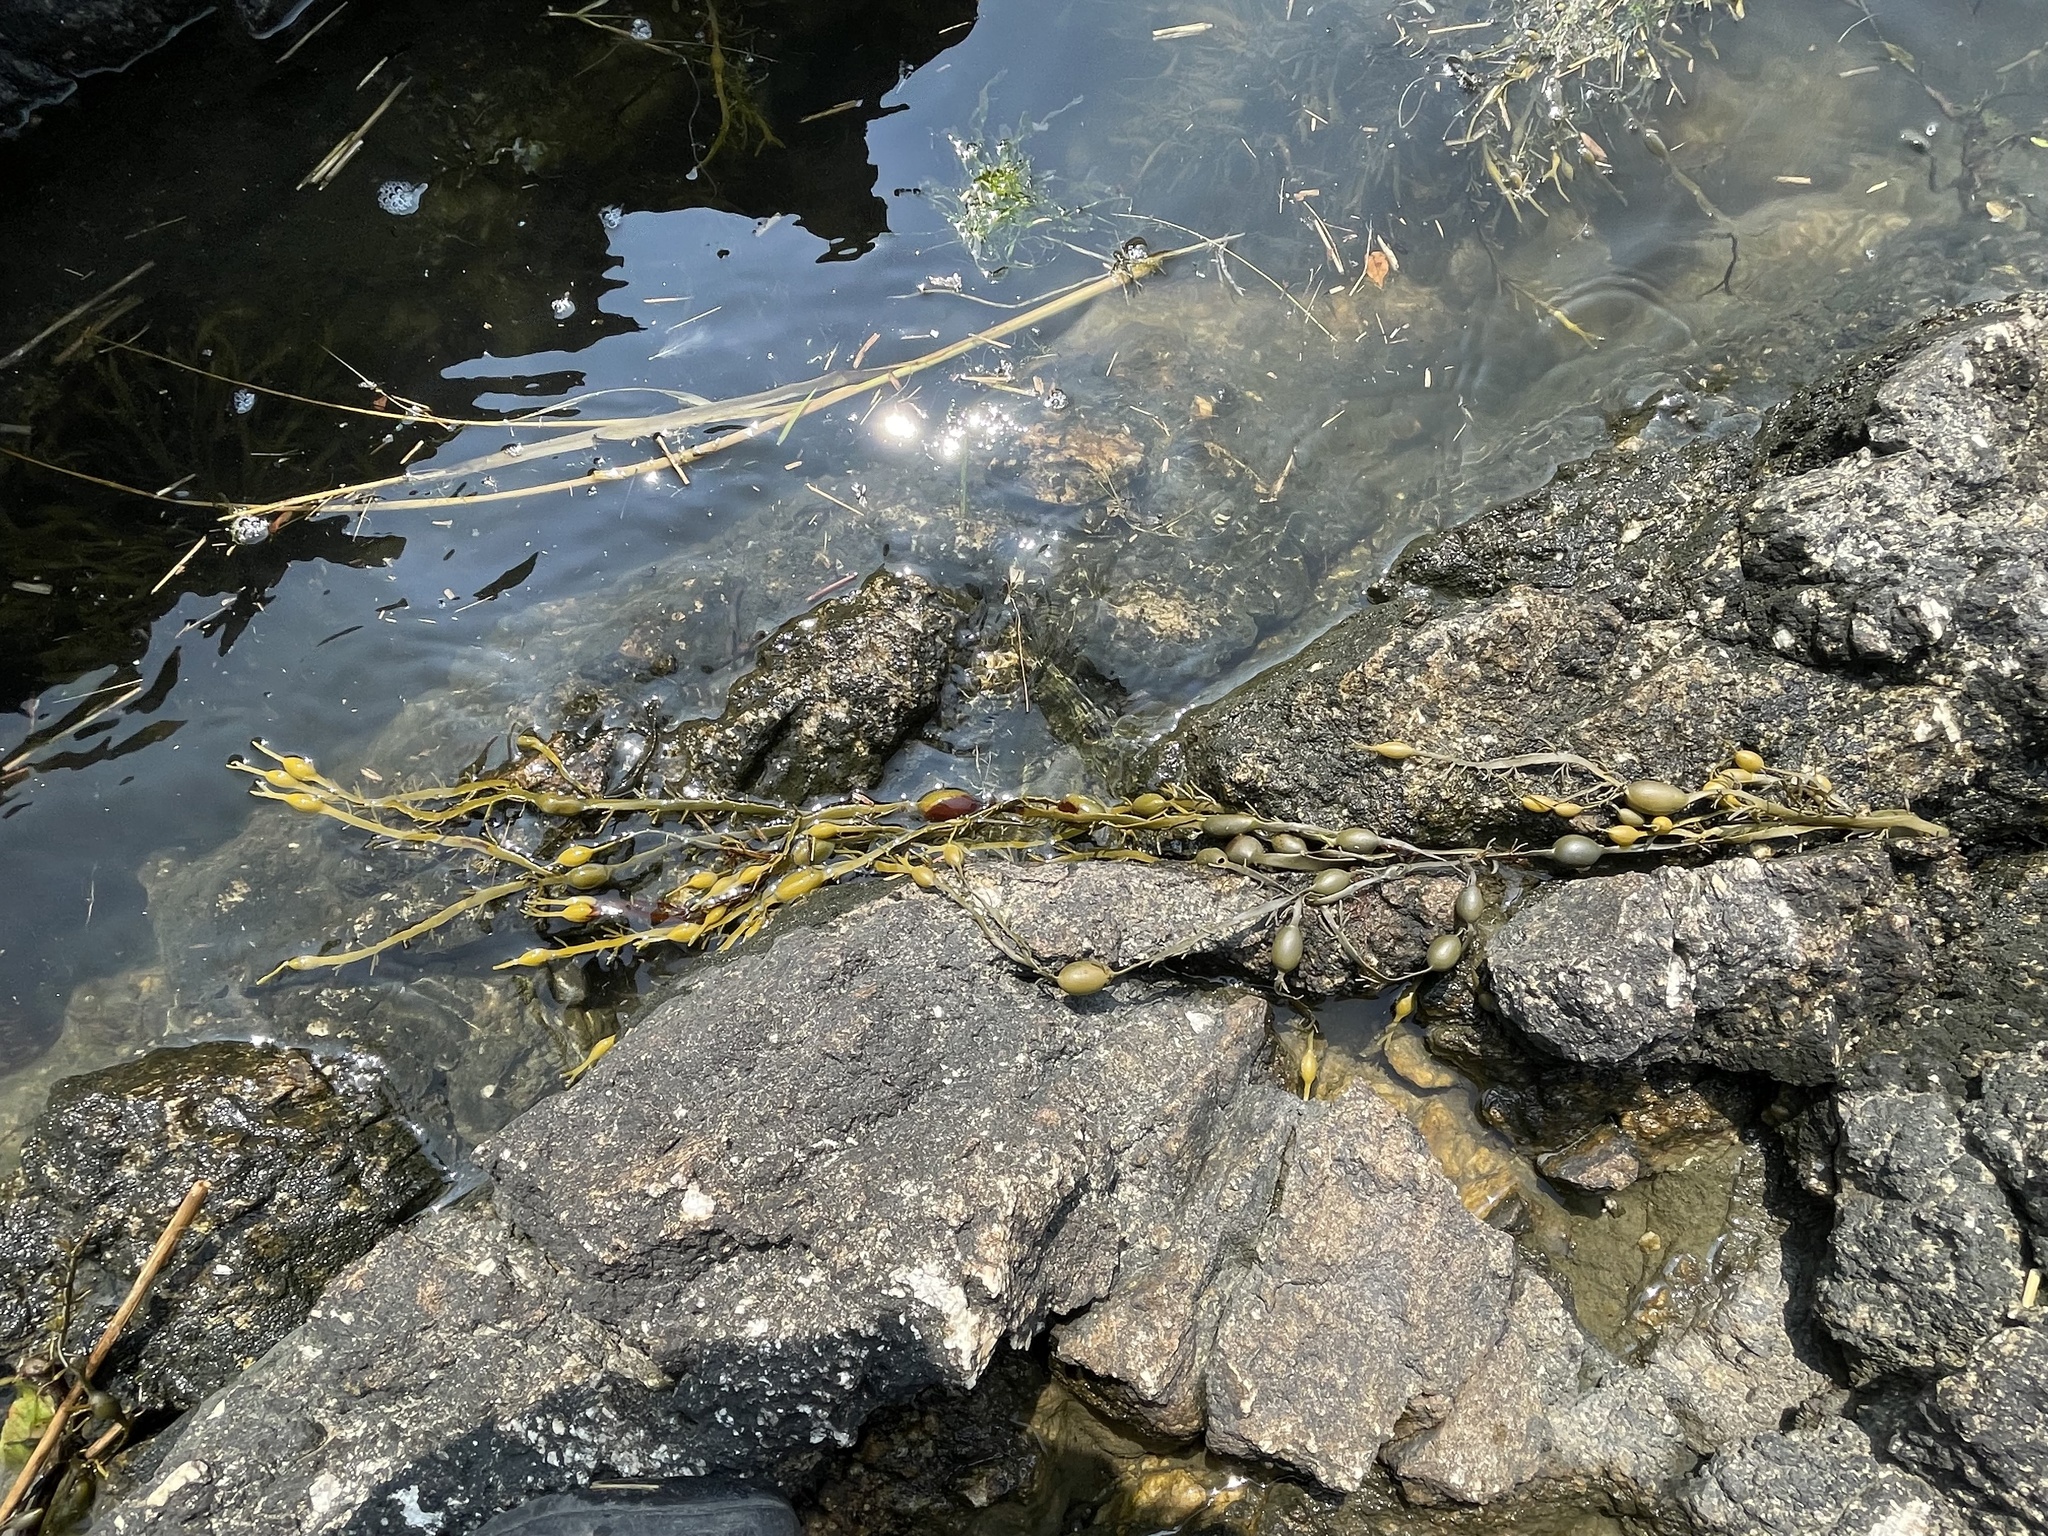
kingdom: Chromista
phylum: Ochrophyta
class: Phaeophyceae
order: Fucales
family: Fucaceae
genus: Ascophyllum
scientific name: Ascophyllum nodosum
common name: Knotted wrack
